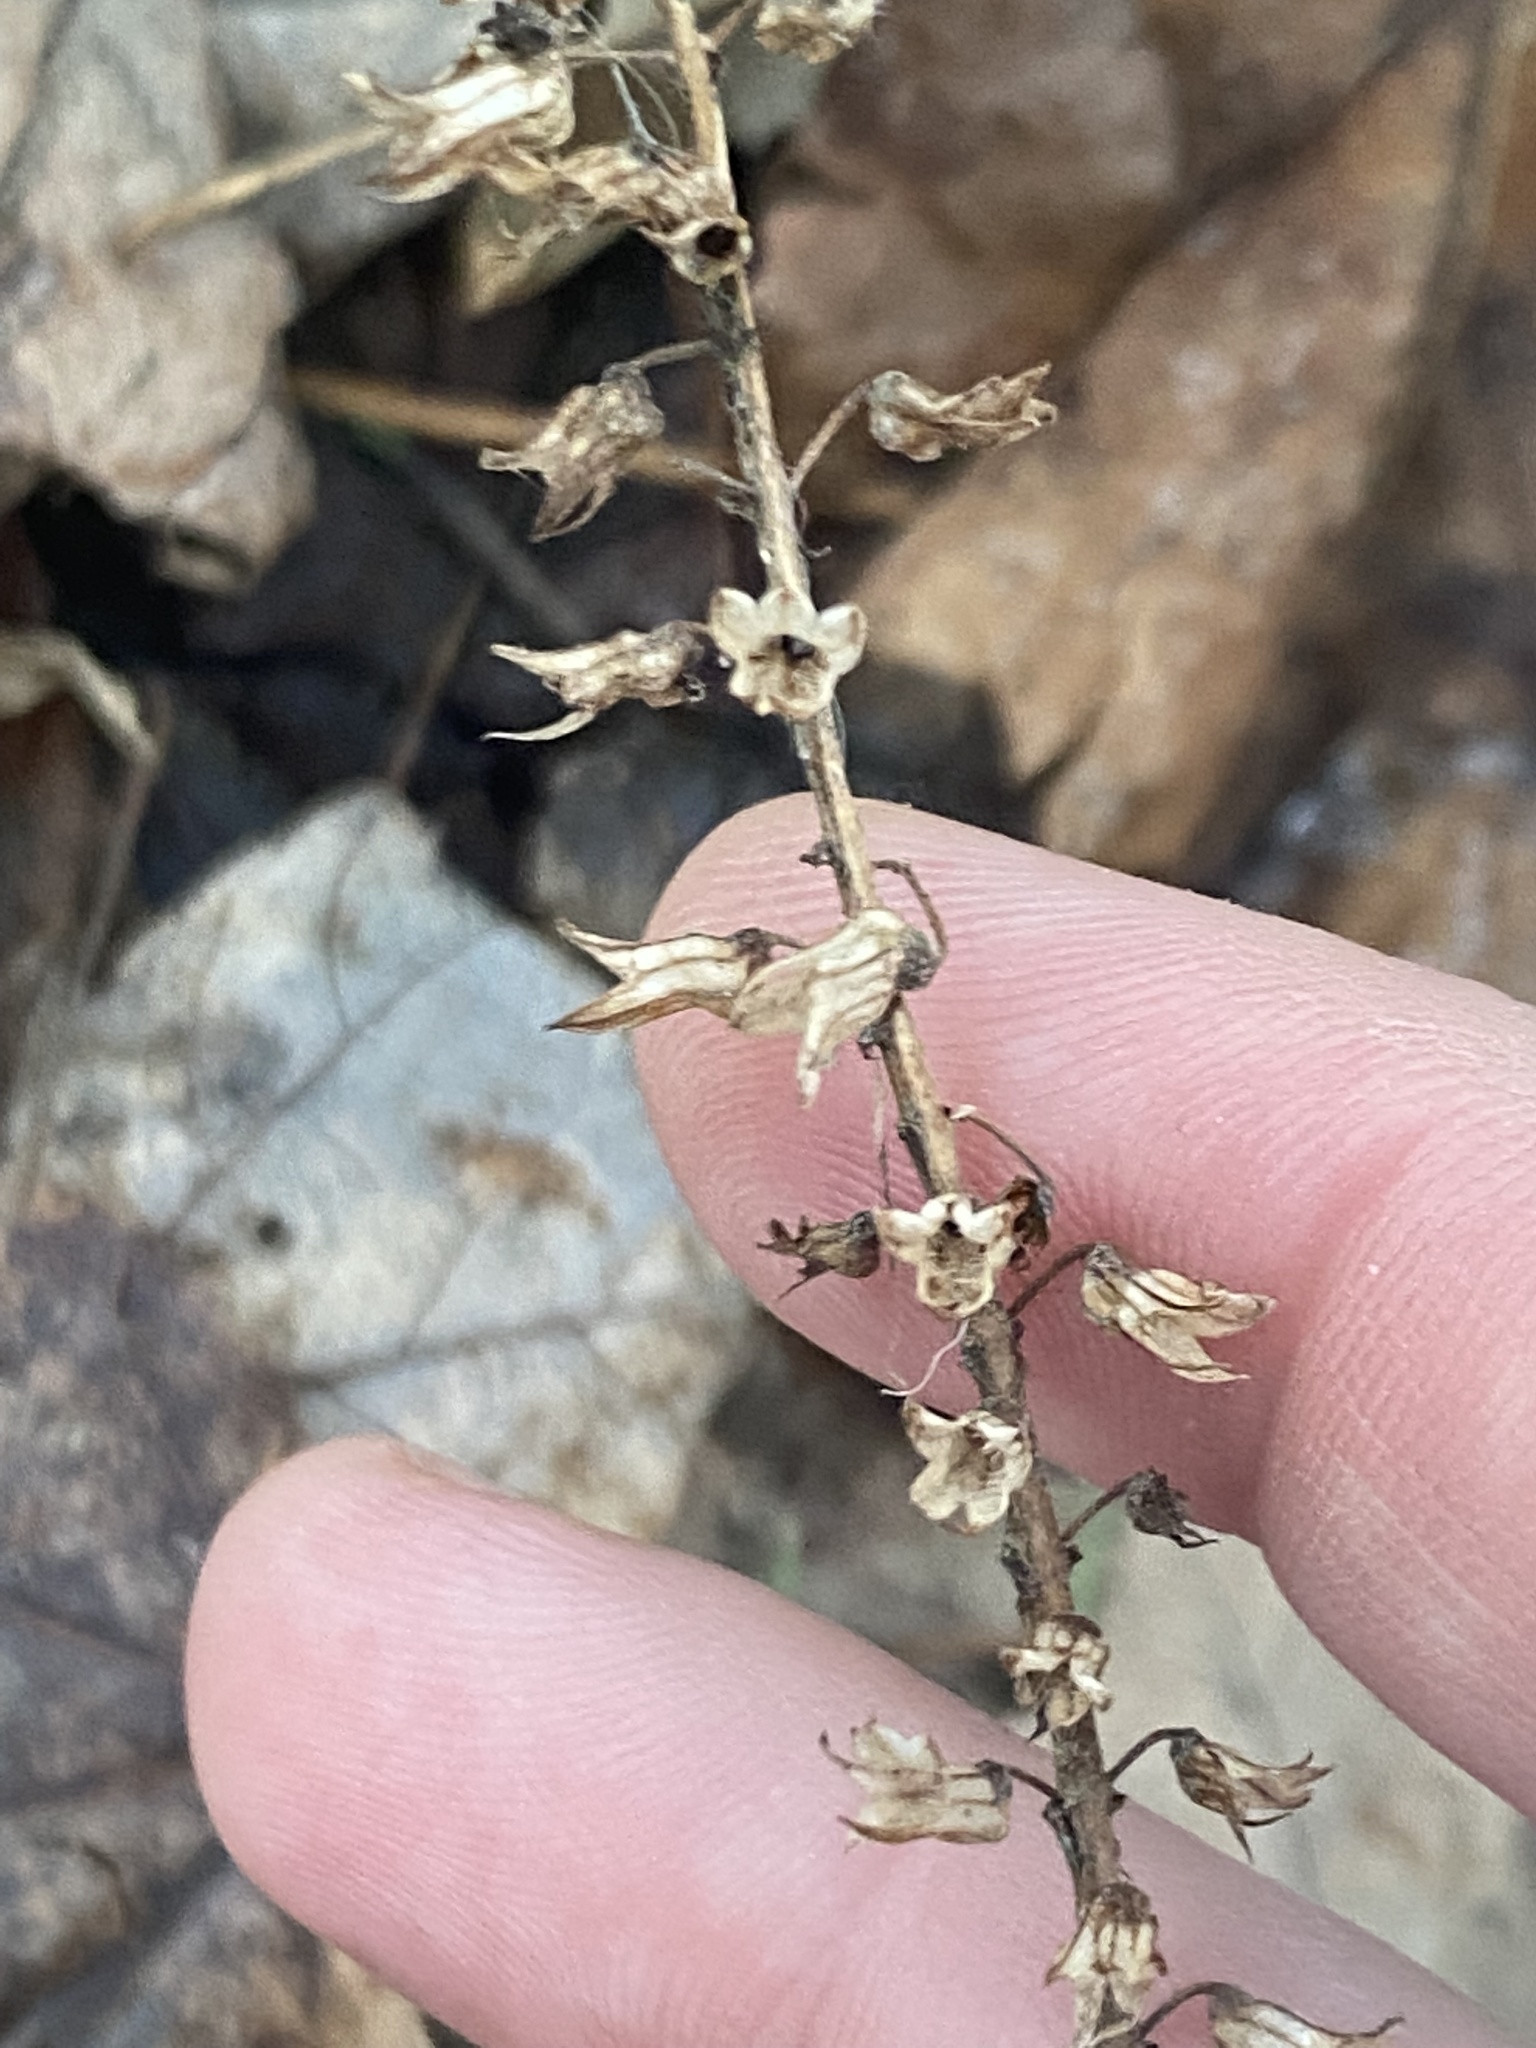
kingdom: Plantae
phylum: Tracheophyta
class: Magnoliopsida
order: Lamiales
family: Lamiaceae
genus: Perilla
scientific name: Perilla frutescens
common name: Perilla
